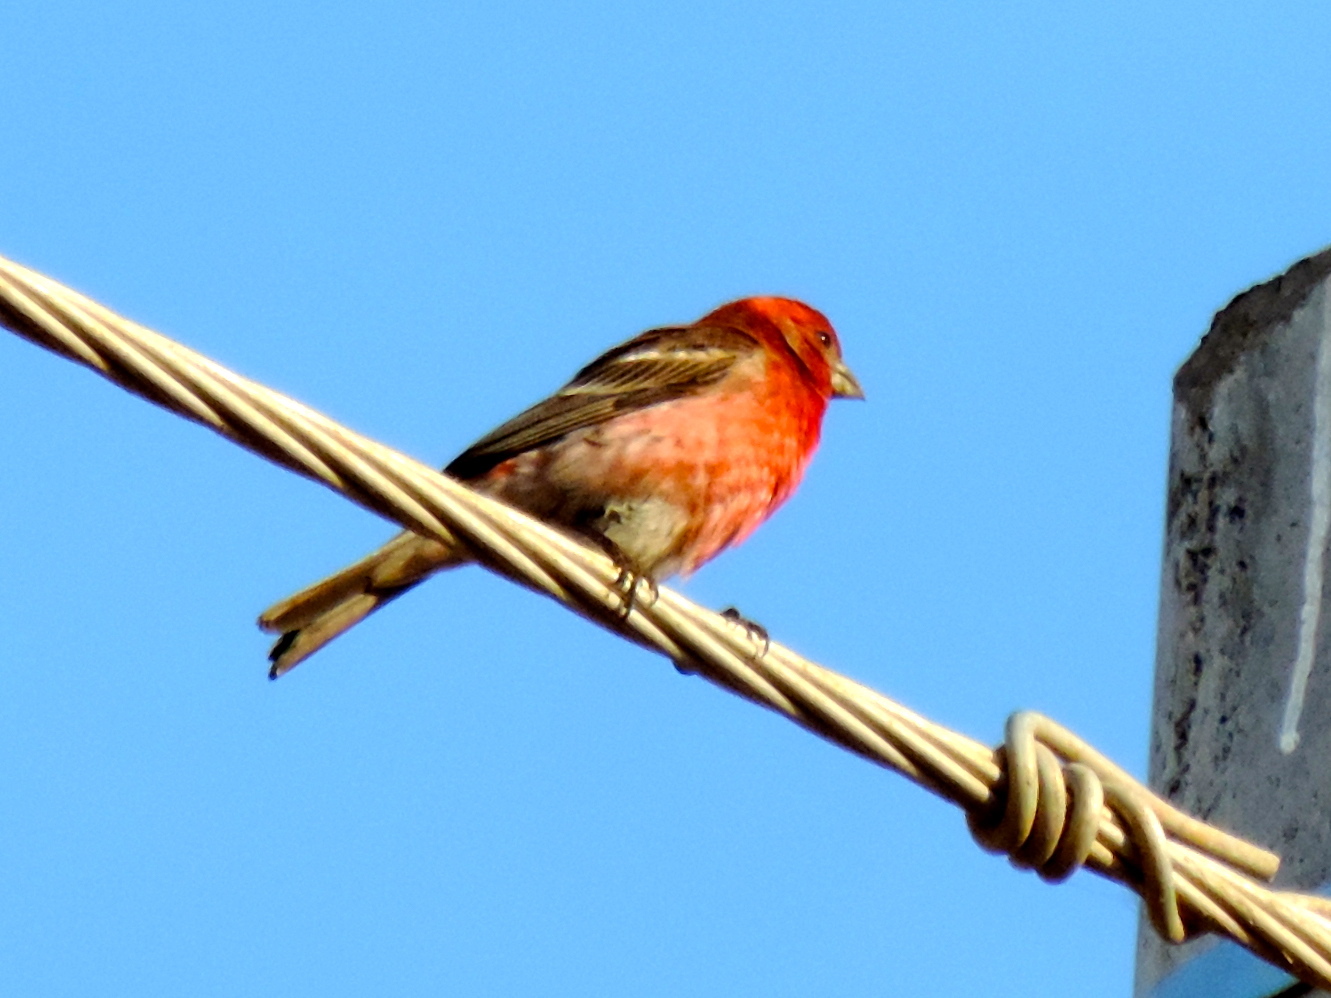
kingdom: Animalia
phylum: Chordata
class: Aves
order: Passeriformes
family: Fringillidae
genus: Haemorhous
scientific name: Haemorhous mexicanus
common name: House finch
